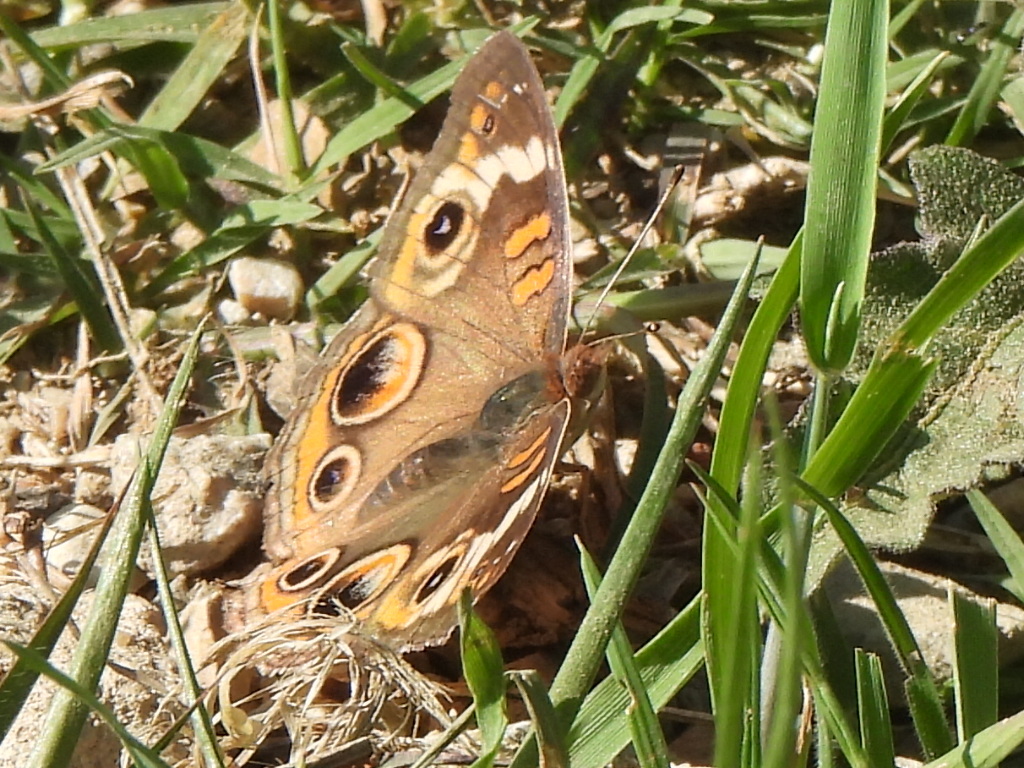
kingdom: Animalia
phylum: Arthropoda
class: Insecta
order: Lepidoptera
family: Nymphalidae
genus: Junonia
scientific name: Junonia coenia
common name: Common buckeye
